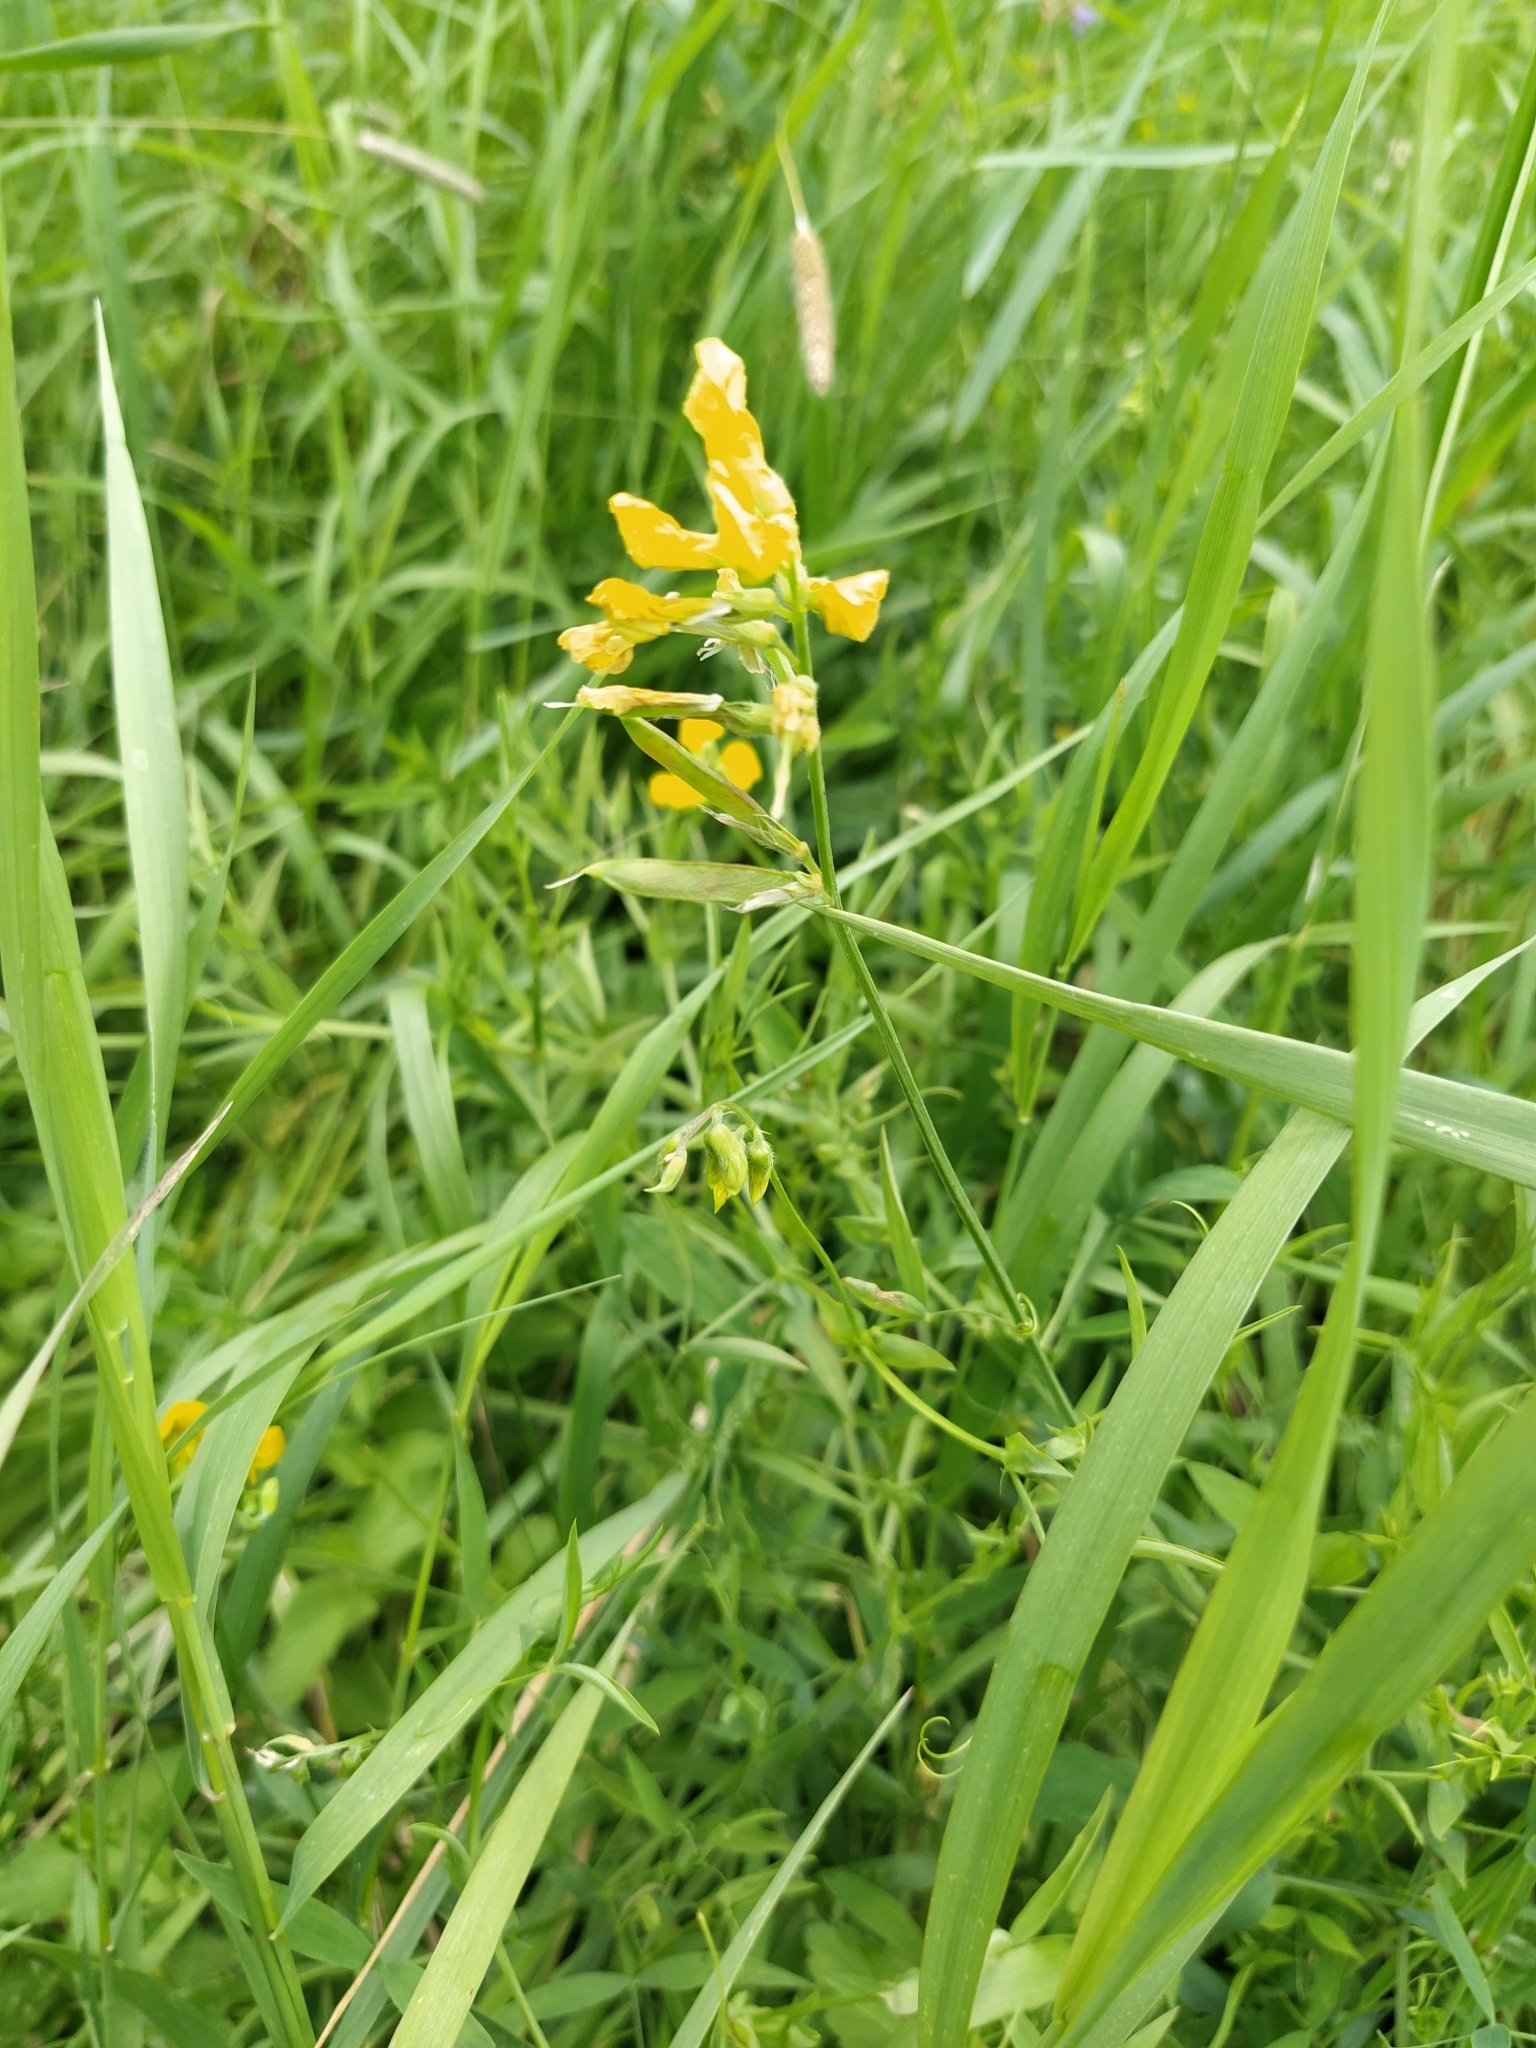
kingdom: Plantae
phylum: Tracheophyta
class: Magnoliopsida
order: Fabales
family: Fabaceae
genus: Lathyrus
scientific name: Lathyrus pratensis
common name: Meadow vetchling
